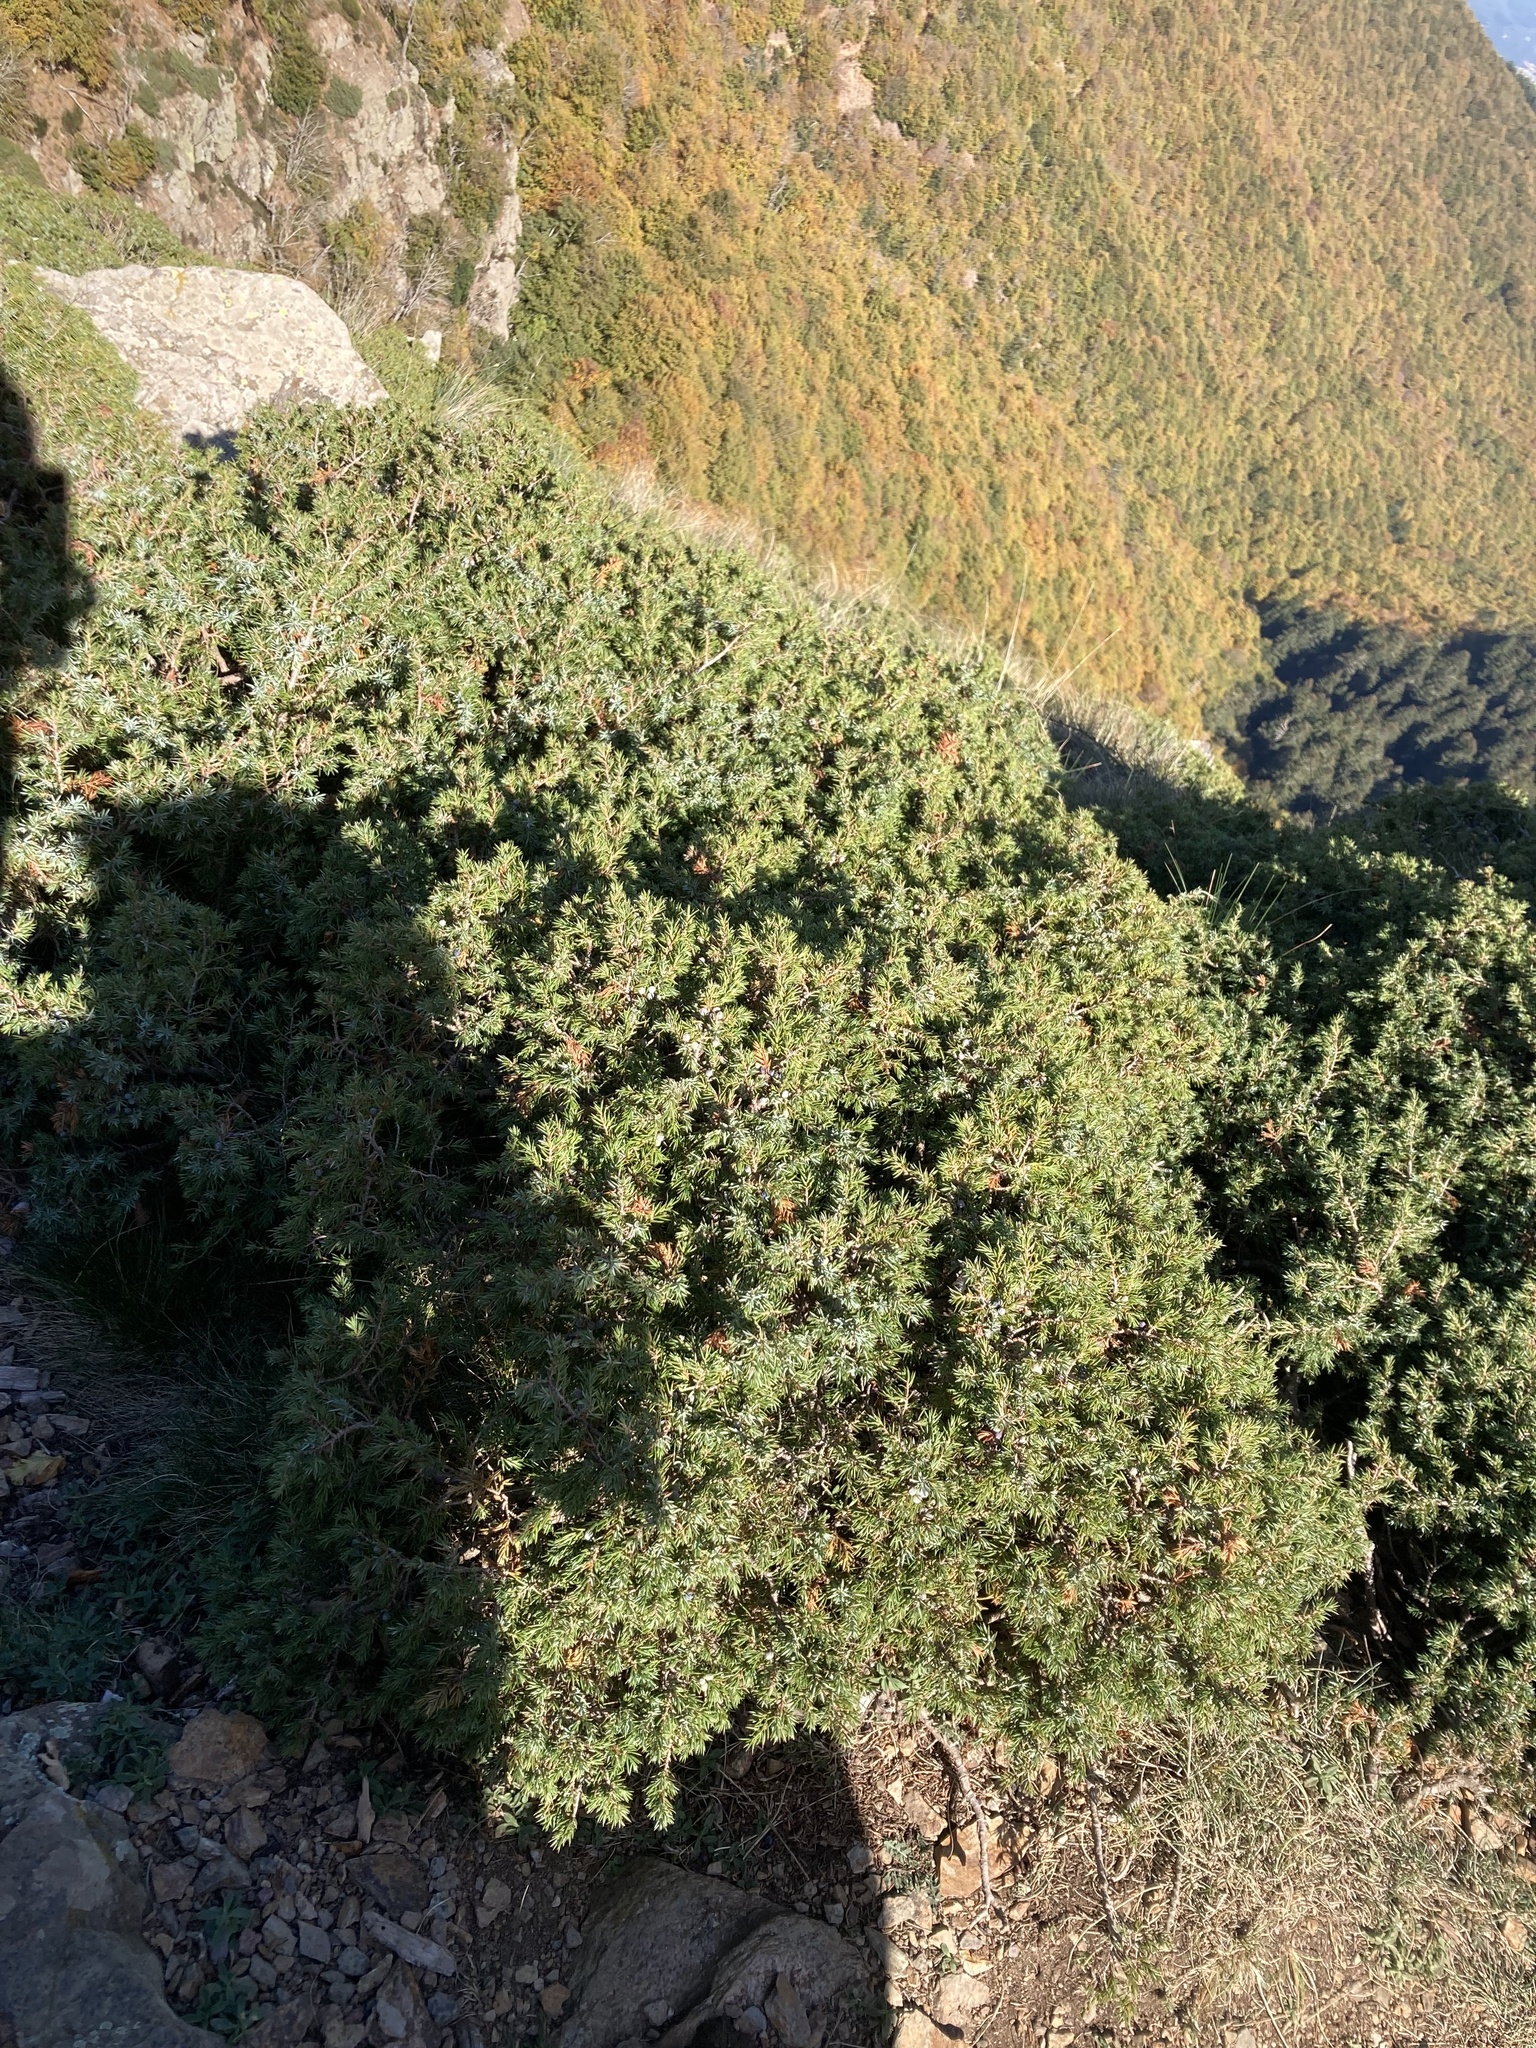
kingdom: Plantae
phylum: Tracheophyta
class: Pinopsida
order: Pinales
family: Cupressaceae
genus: Juniperus
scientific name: Juniperus communis
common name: Common juniper
